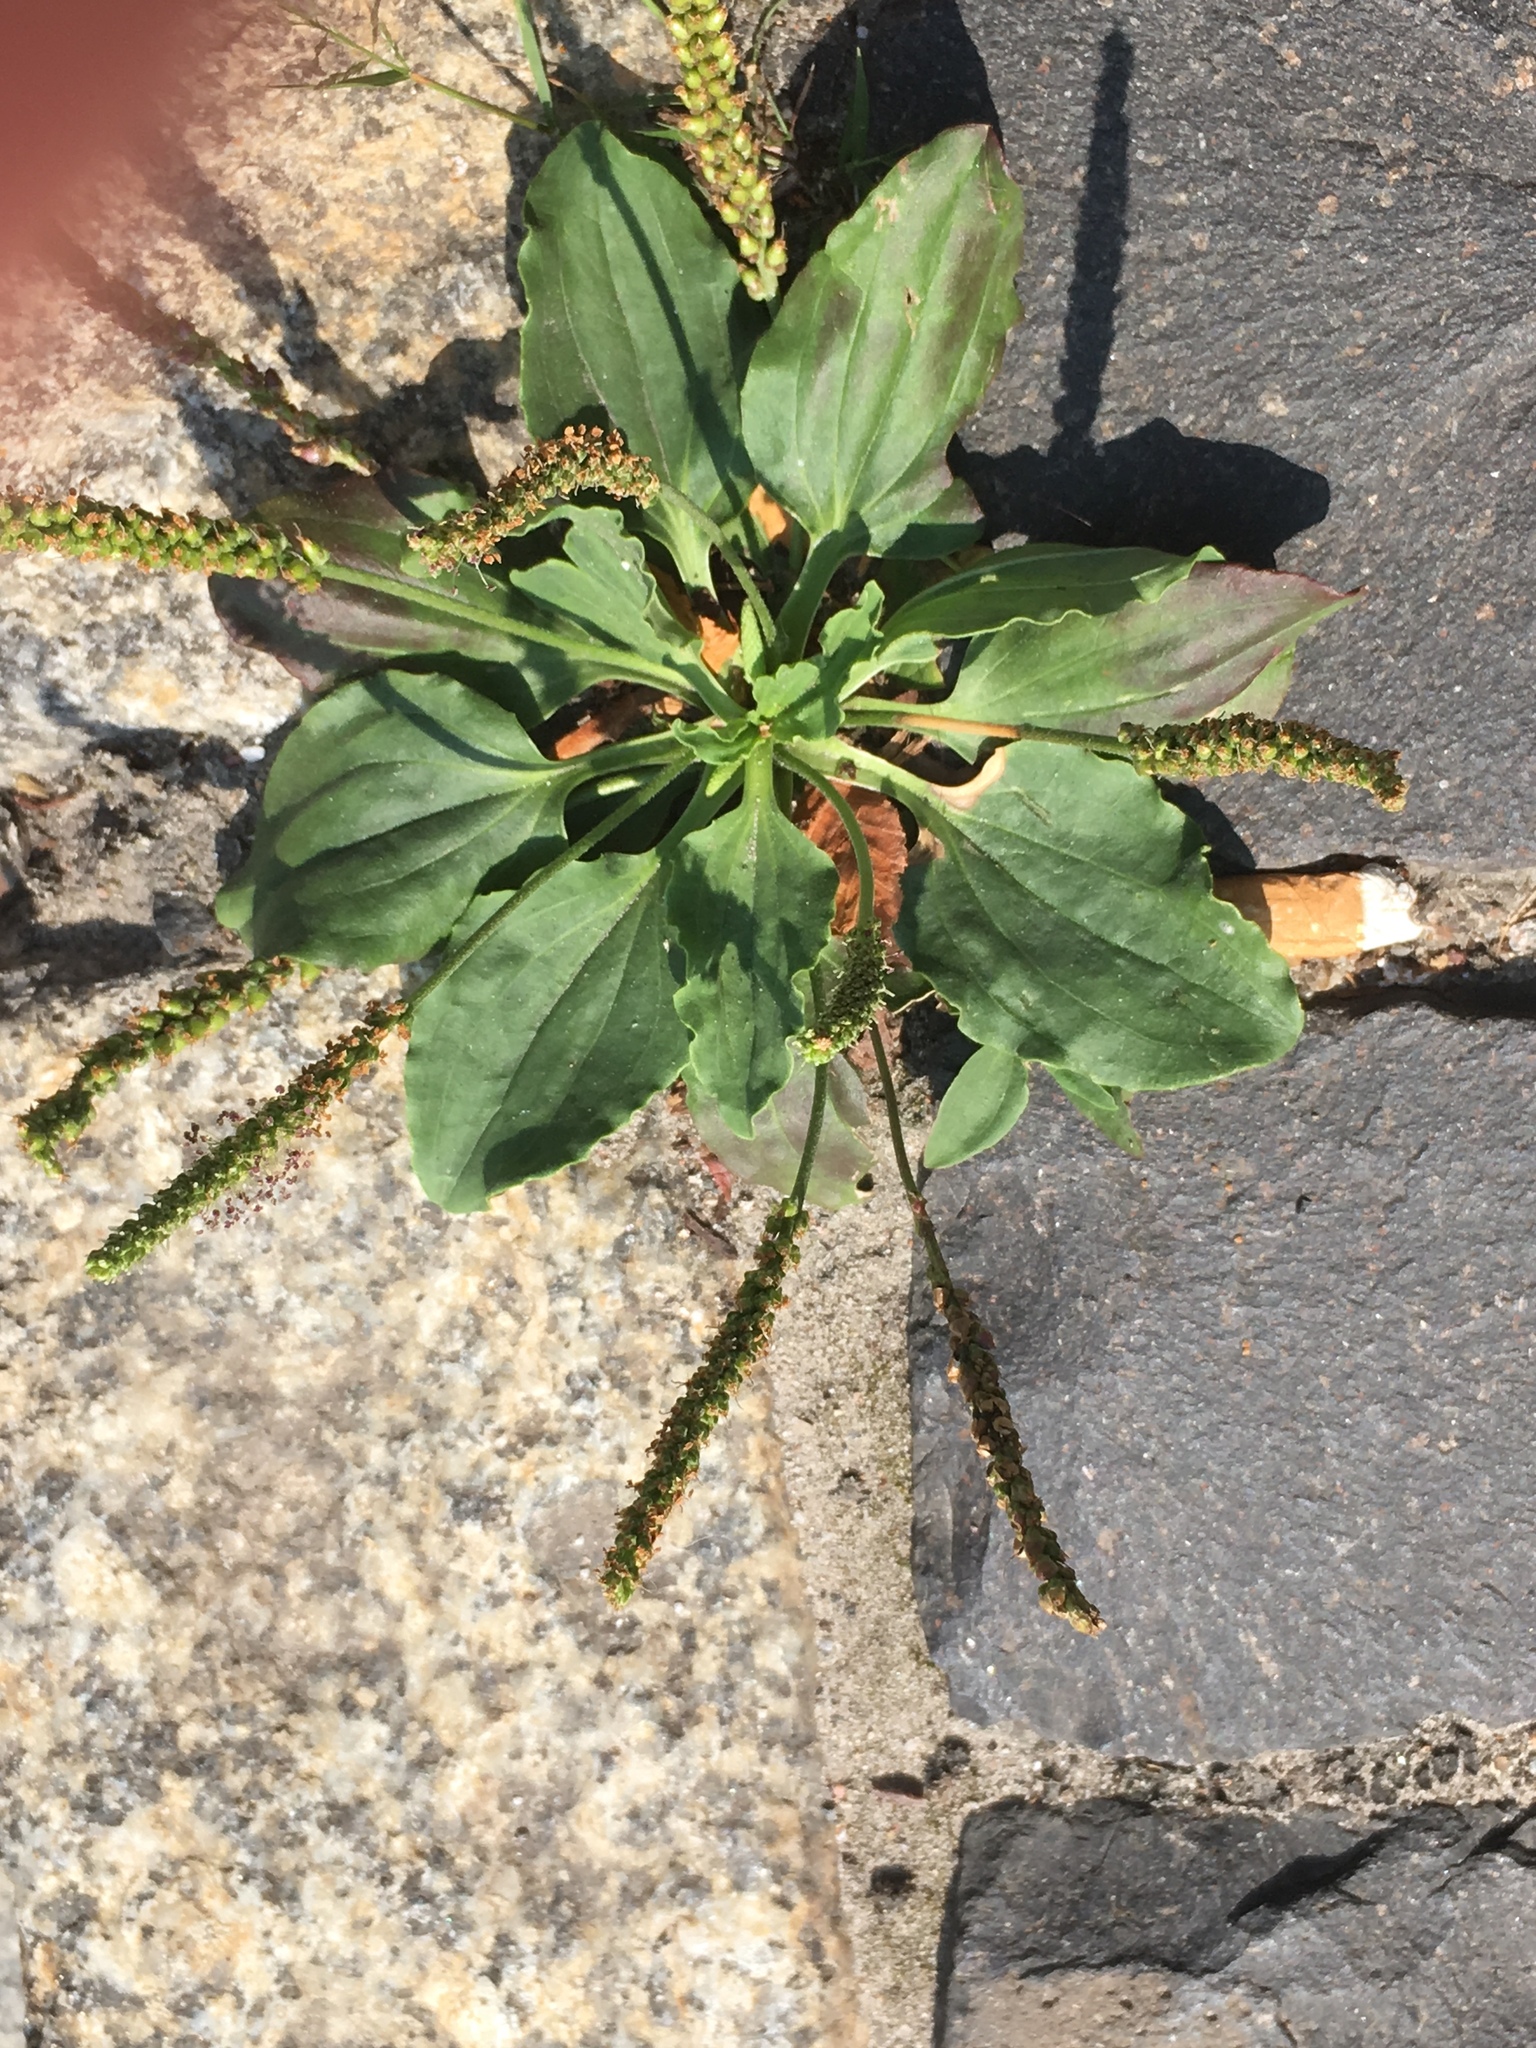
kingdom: Plantae
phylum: Tracheophyta
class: Magnoliopsida
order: Lamiales
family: Plantaginaceae
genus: Plantago
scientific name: Plantago major
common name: Common plantain
